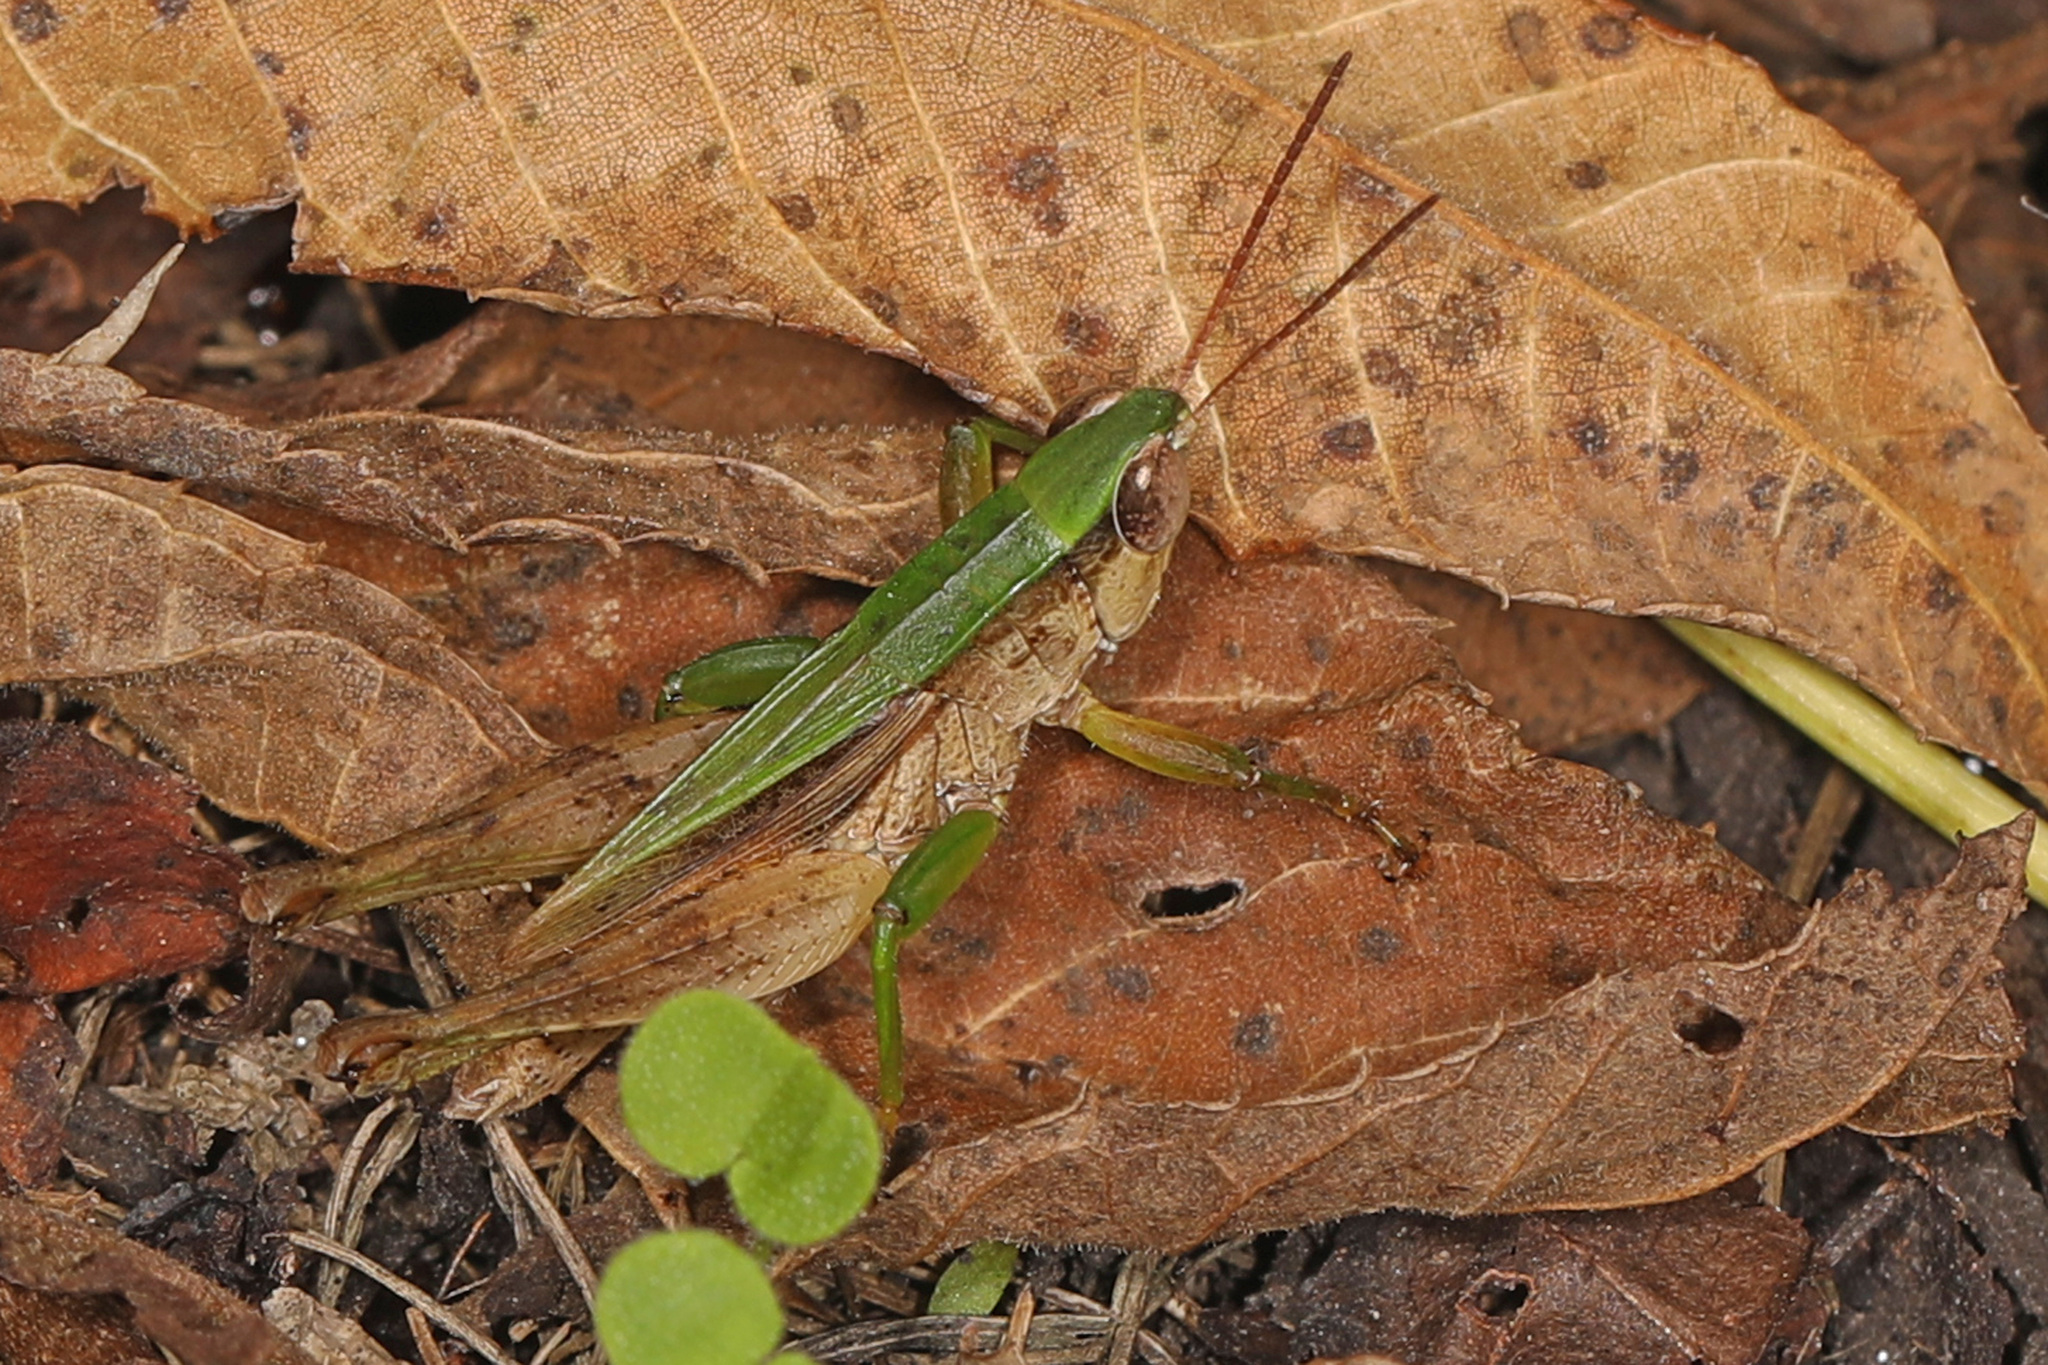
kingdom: Animalia
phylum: Arthropoda
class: Insecta
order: Orthoptera
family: Acrididae
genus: Dichromorpha
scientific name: Dichromorpha viridis
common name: Short-winged green grasshopper
